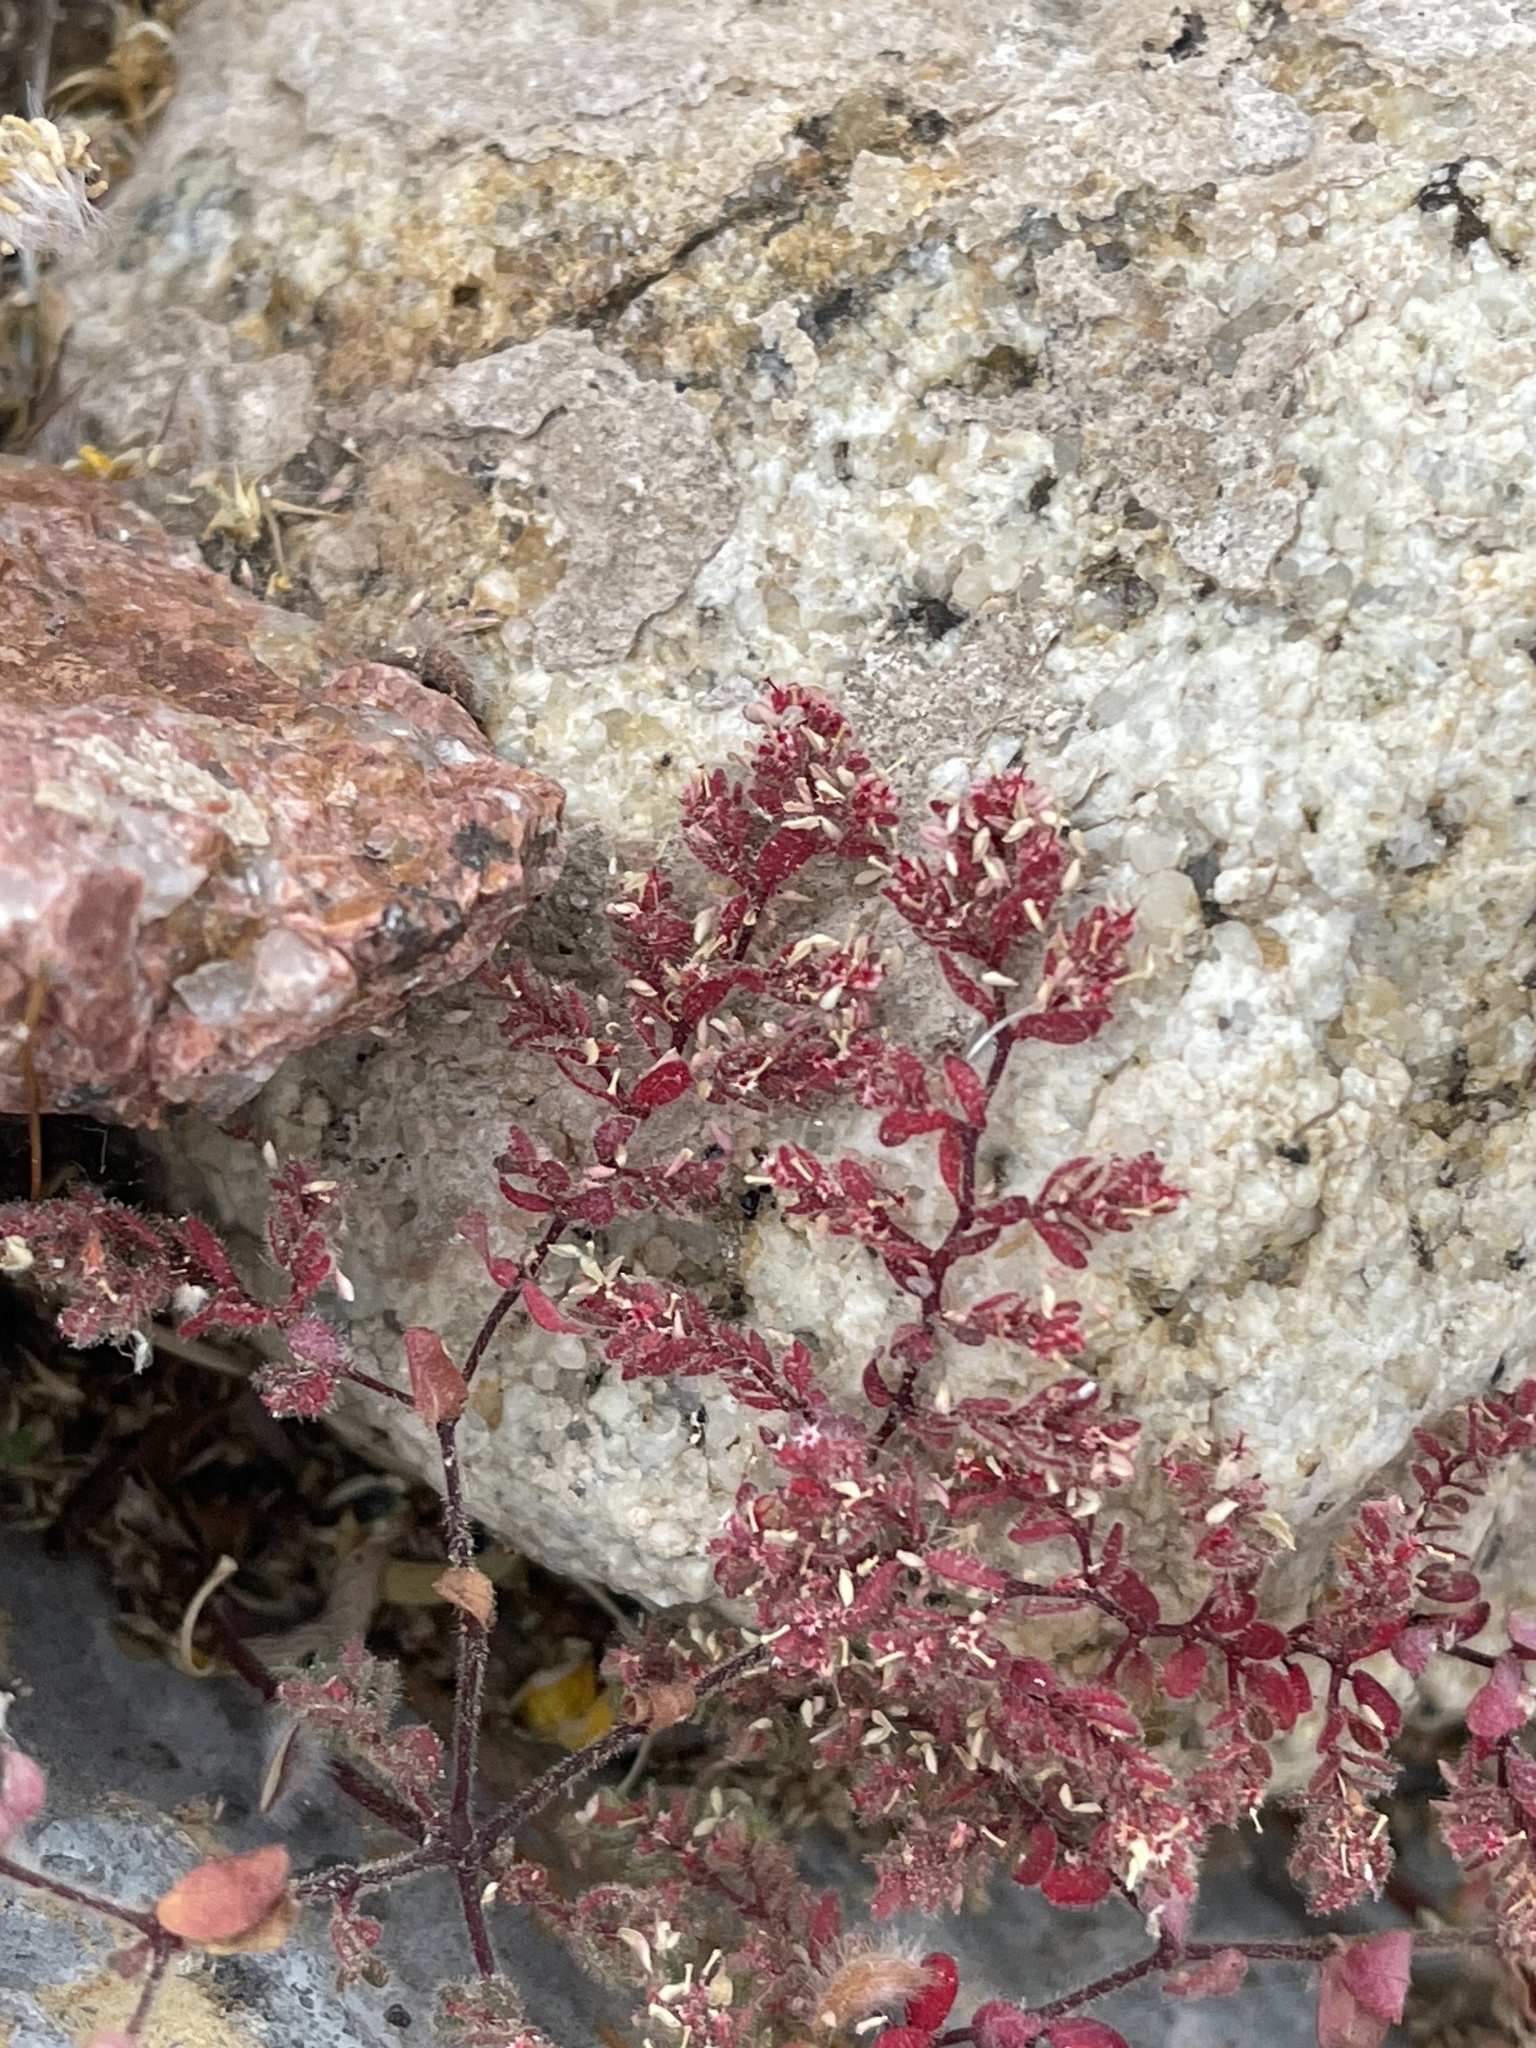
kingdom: Plantae
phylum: Tracheophyta
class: Magnoliopsida
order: Malpighiales
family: Euphorbiaceae
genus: Euphorbia
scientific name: Euphorbia setiloba
